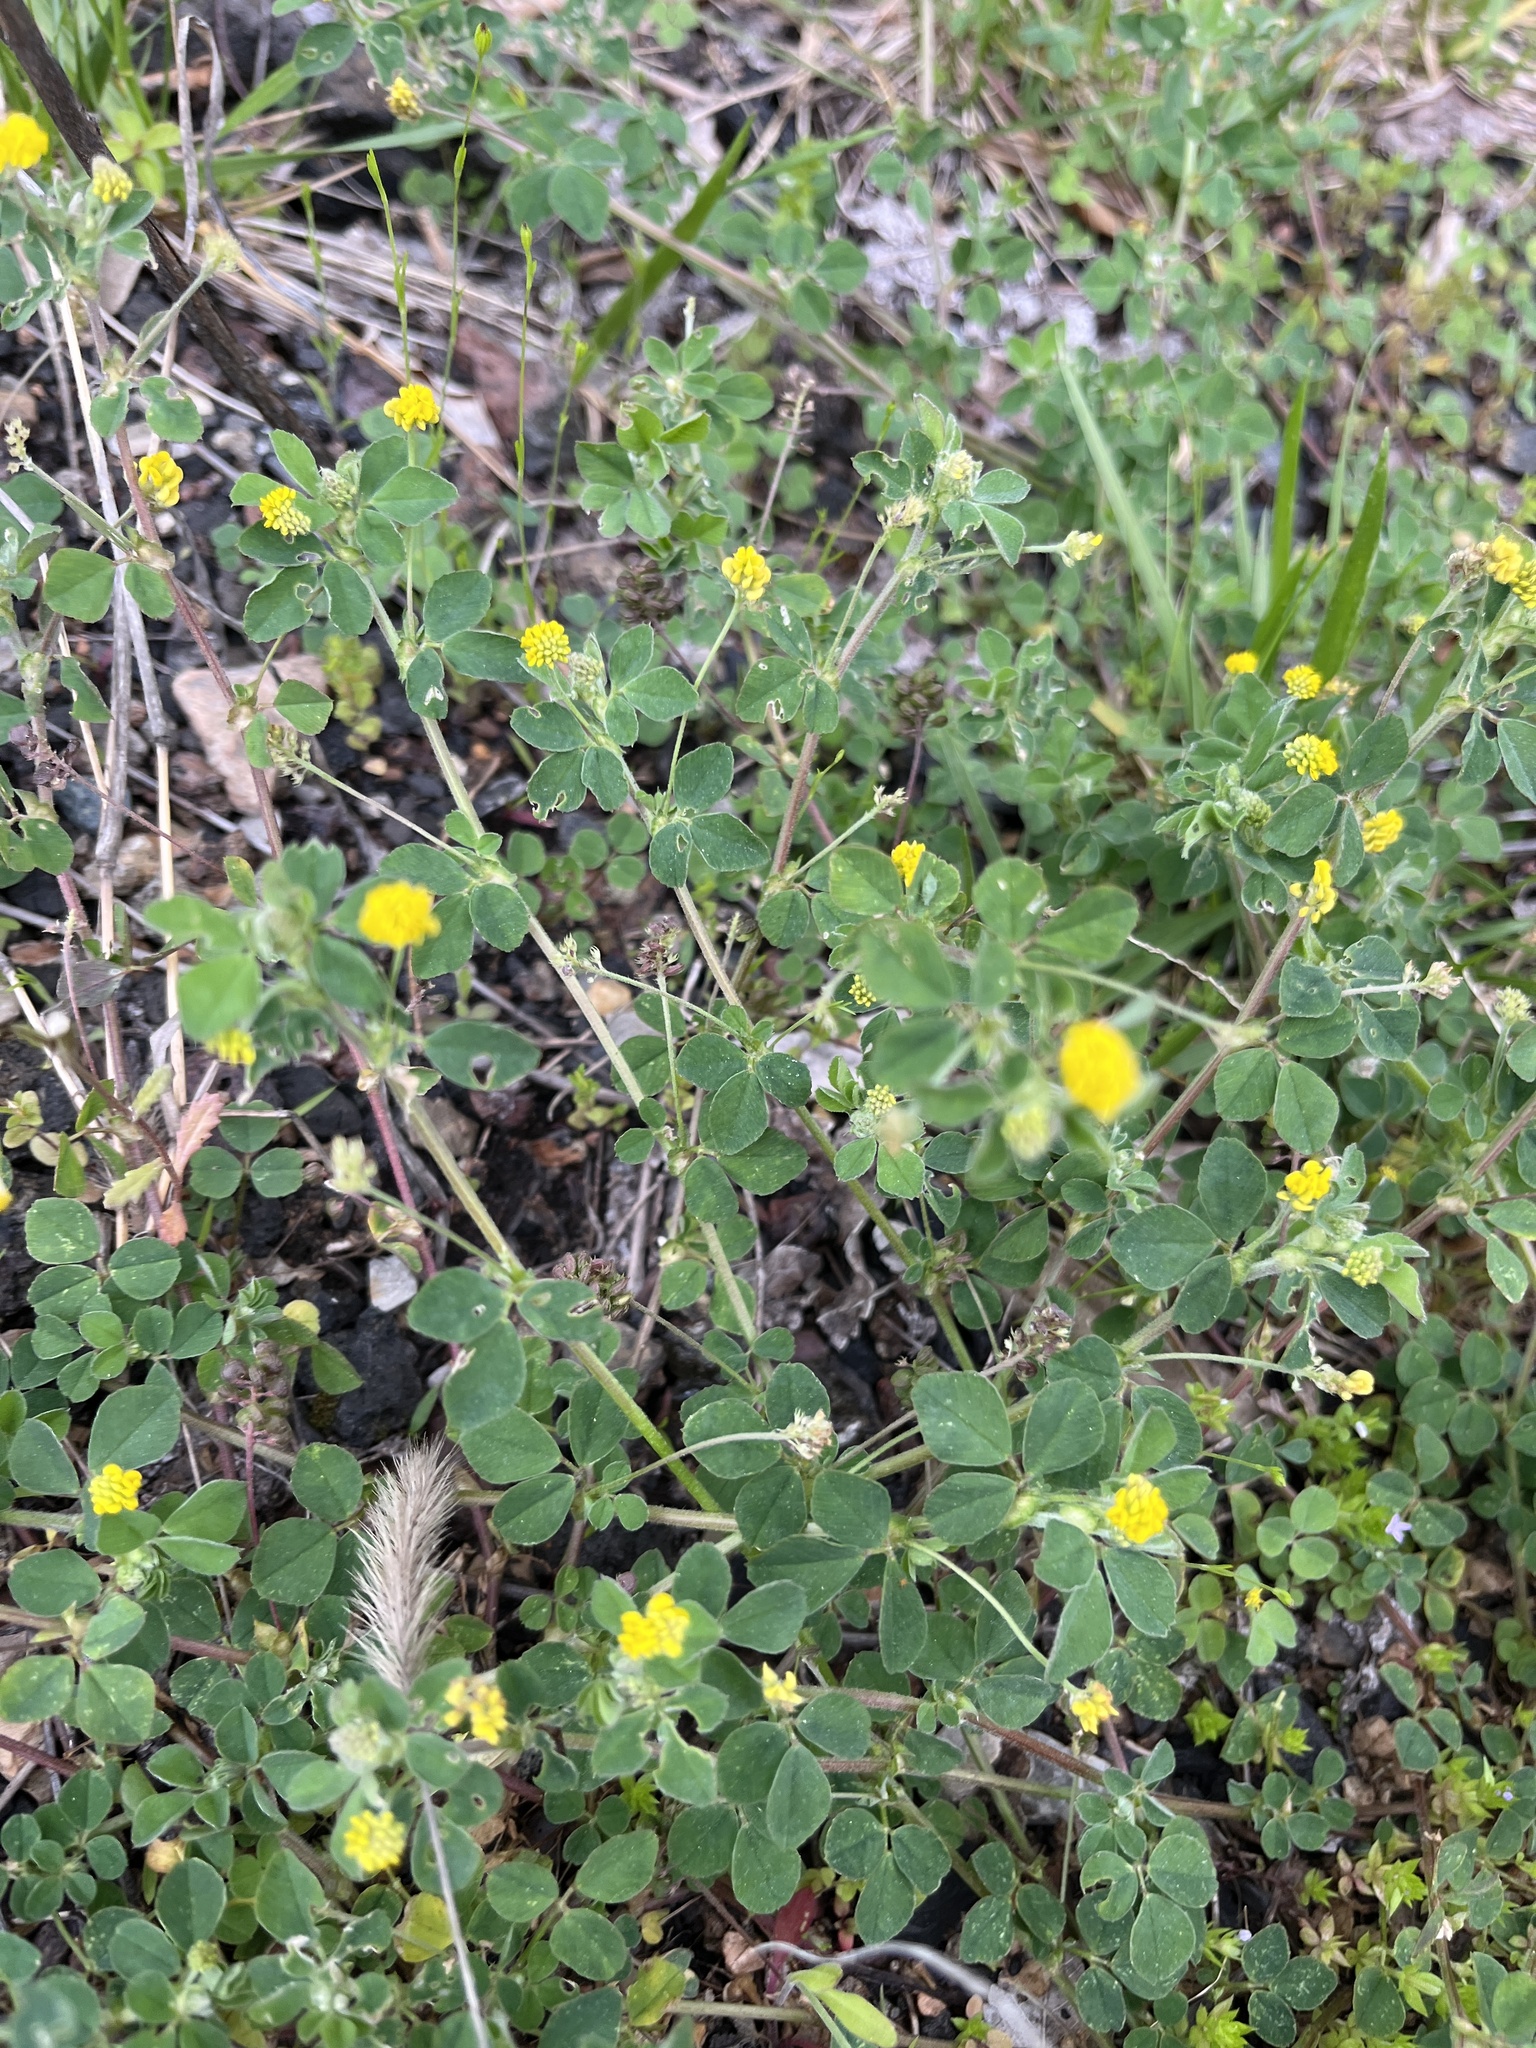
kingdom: Plantae
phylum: Tracheophyta
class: Magnoliopsida
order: Fabales
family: Fabaceae
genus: Medicago
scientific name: Medicago lupulina
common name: Black medick
